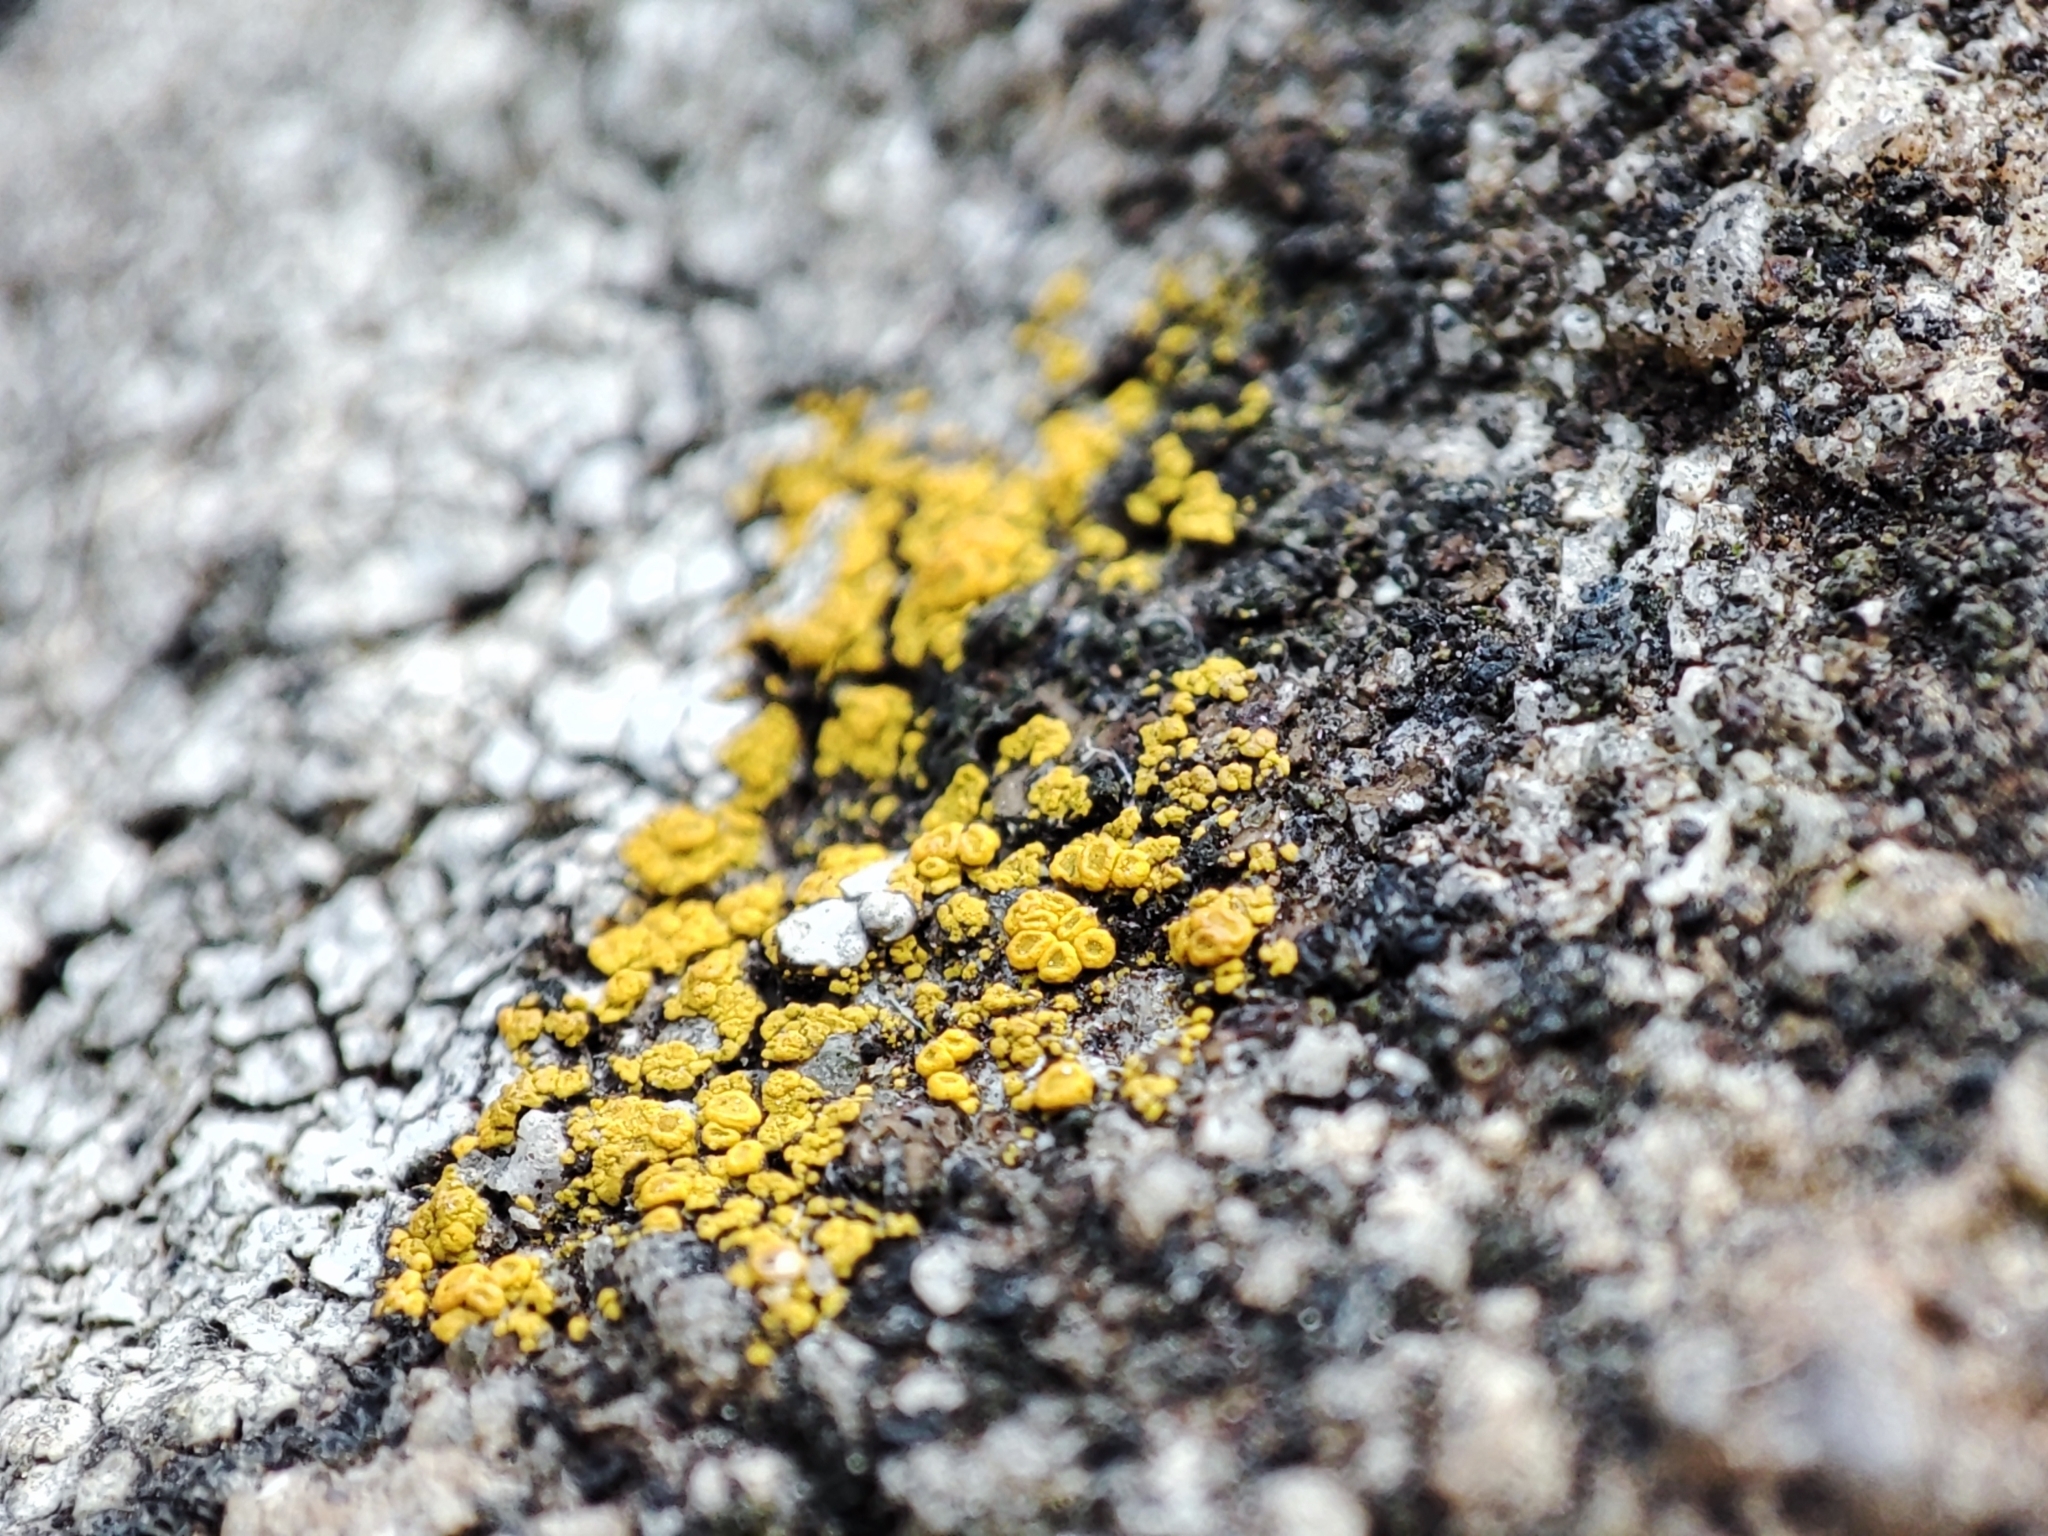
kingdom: Fungi
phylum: Ascomycota
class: Candelariomycetes
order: Candelariales
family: Candelariaceae
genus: Candelariella
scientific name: Candelariella vitellina
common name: Common goldspeck
